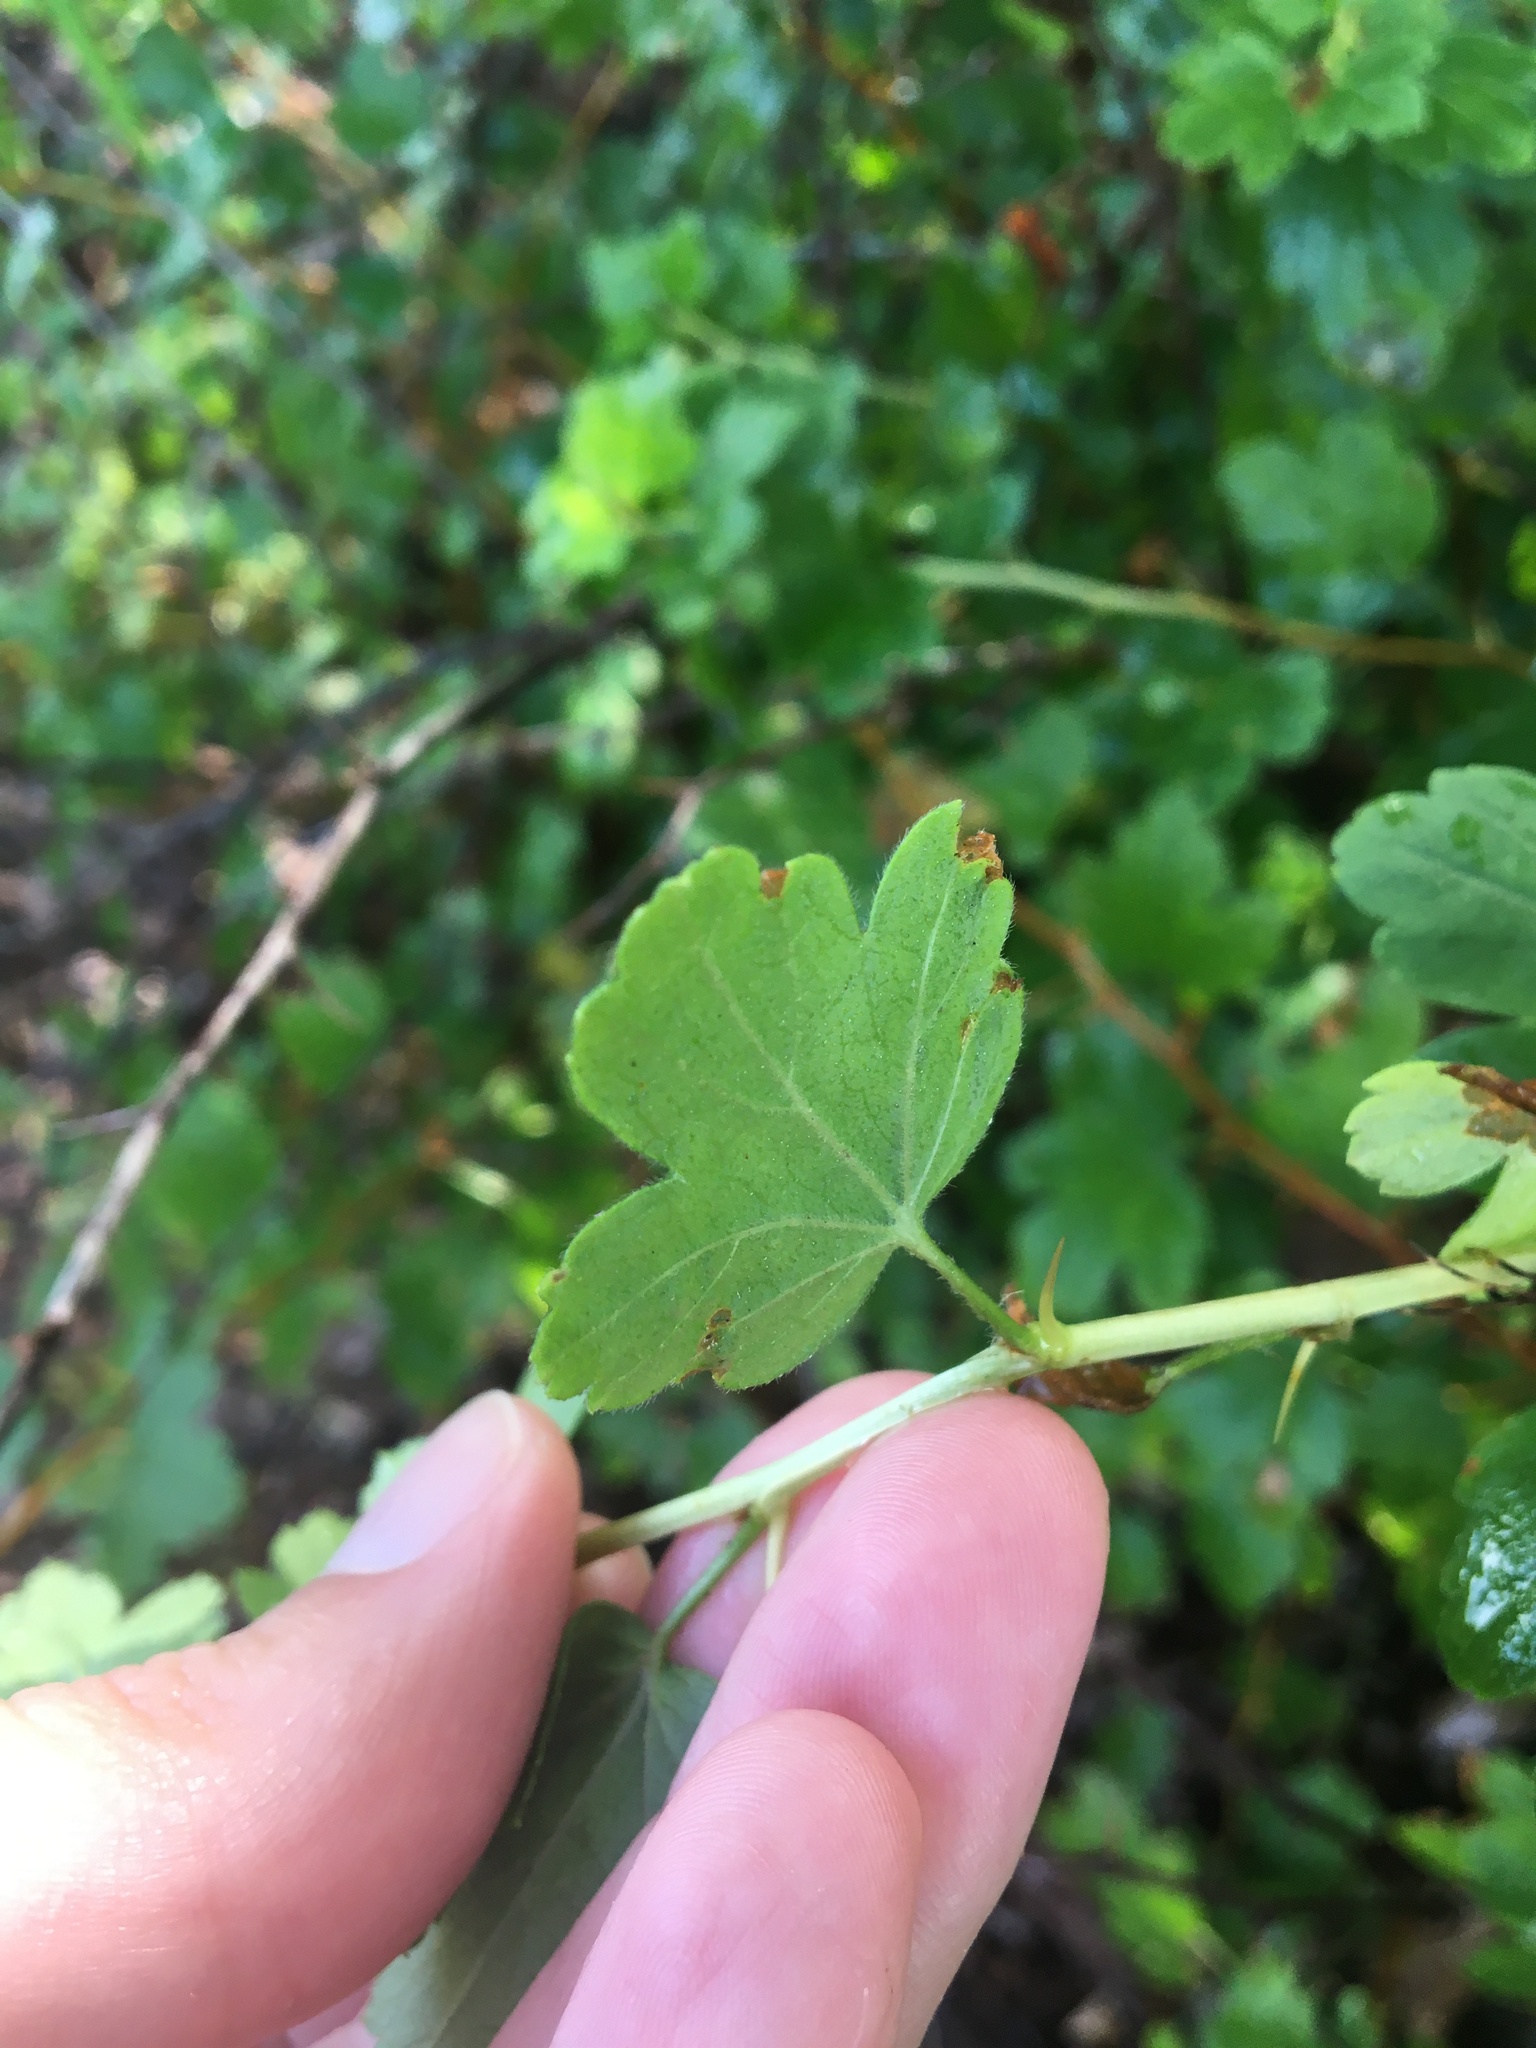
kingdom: Plantae
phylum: Tracheophyta
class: Magnoliopsida
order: Saxifragales
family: Grossulariaceae
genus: Ribes
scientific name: Ribes curvatum
